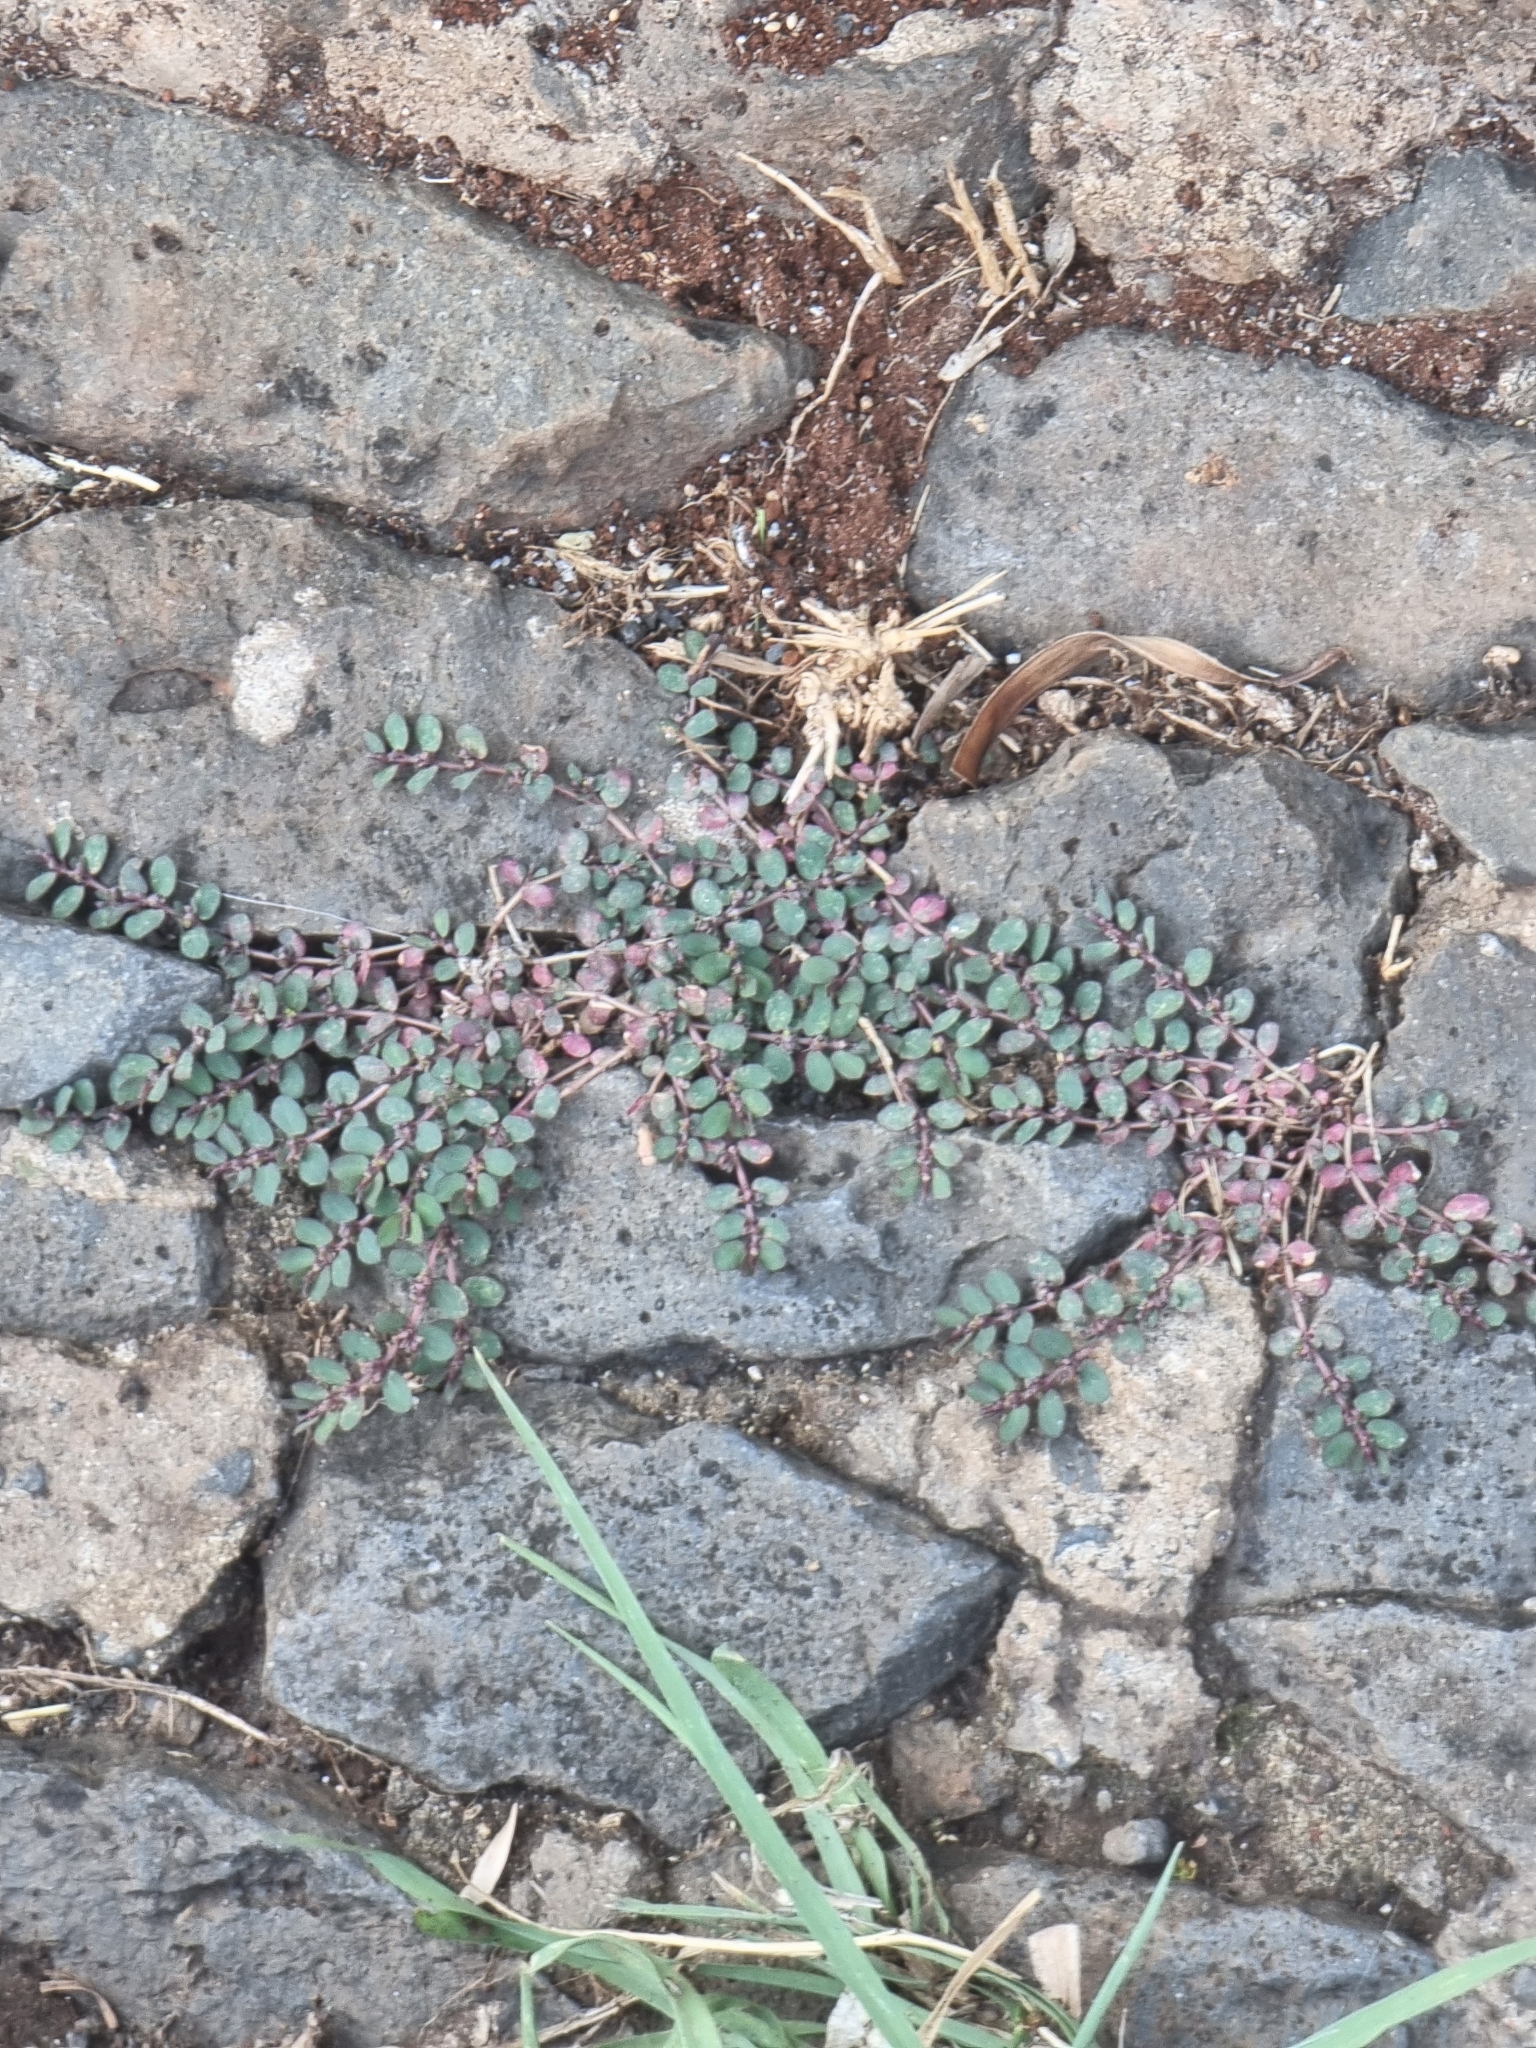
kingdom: Plantae
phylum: Tracheophyta
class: Magnoliopsida
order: Malpighiales
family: Euphorbiaceae
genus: Euphorbia
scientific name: Euphorbia prostrata
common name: Prostrate sandmat
